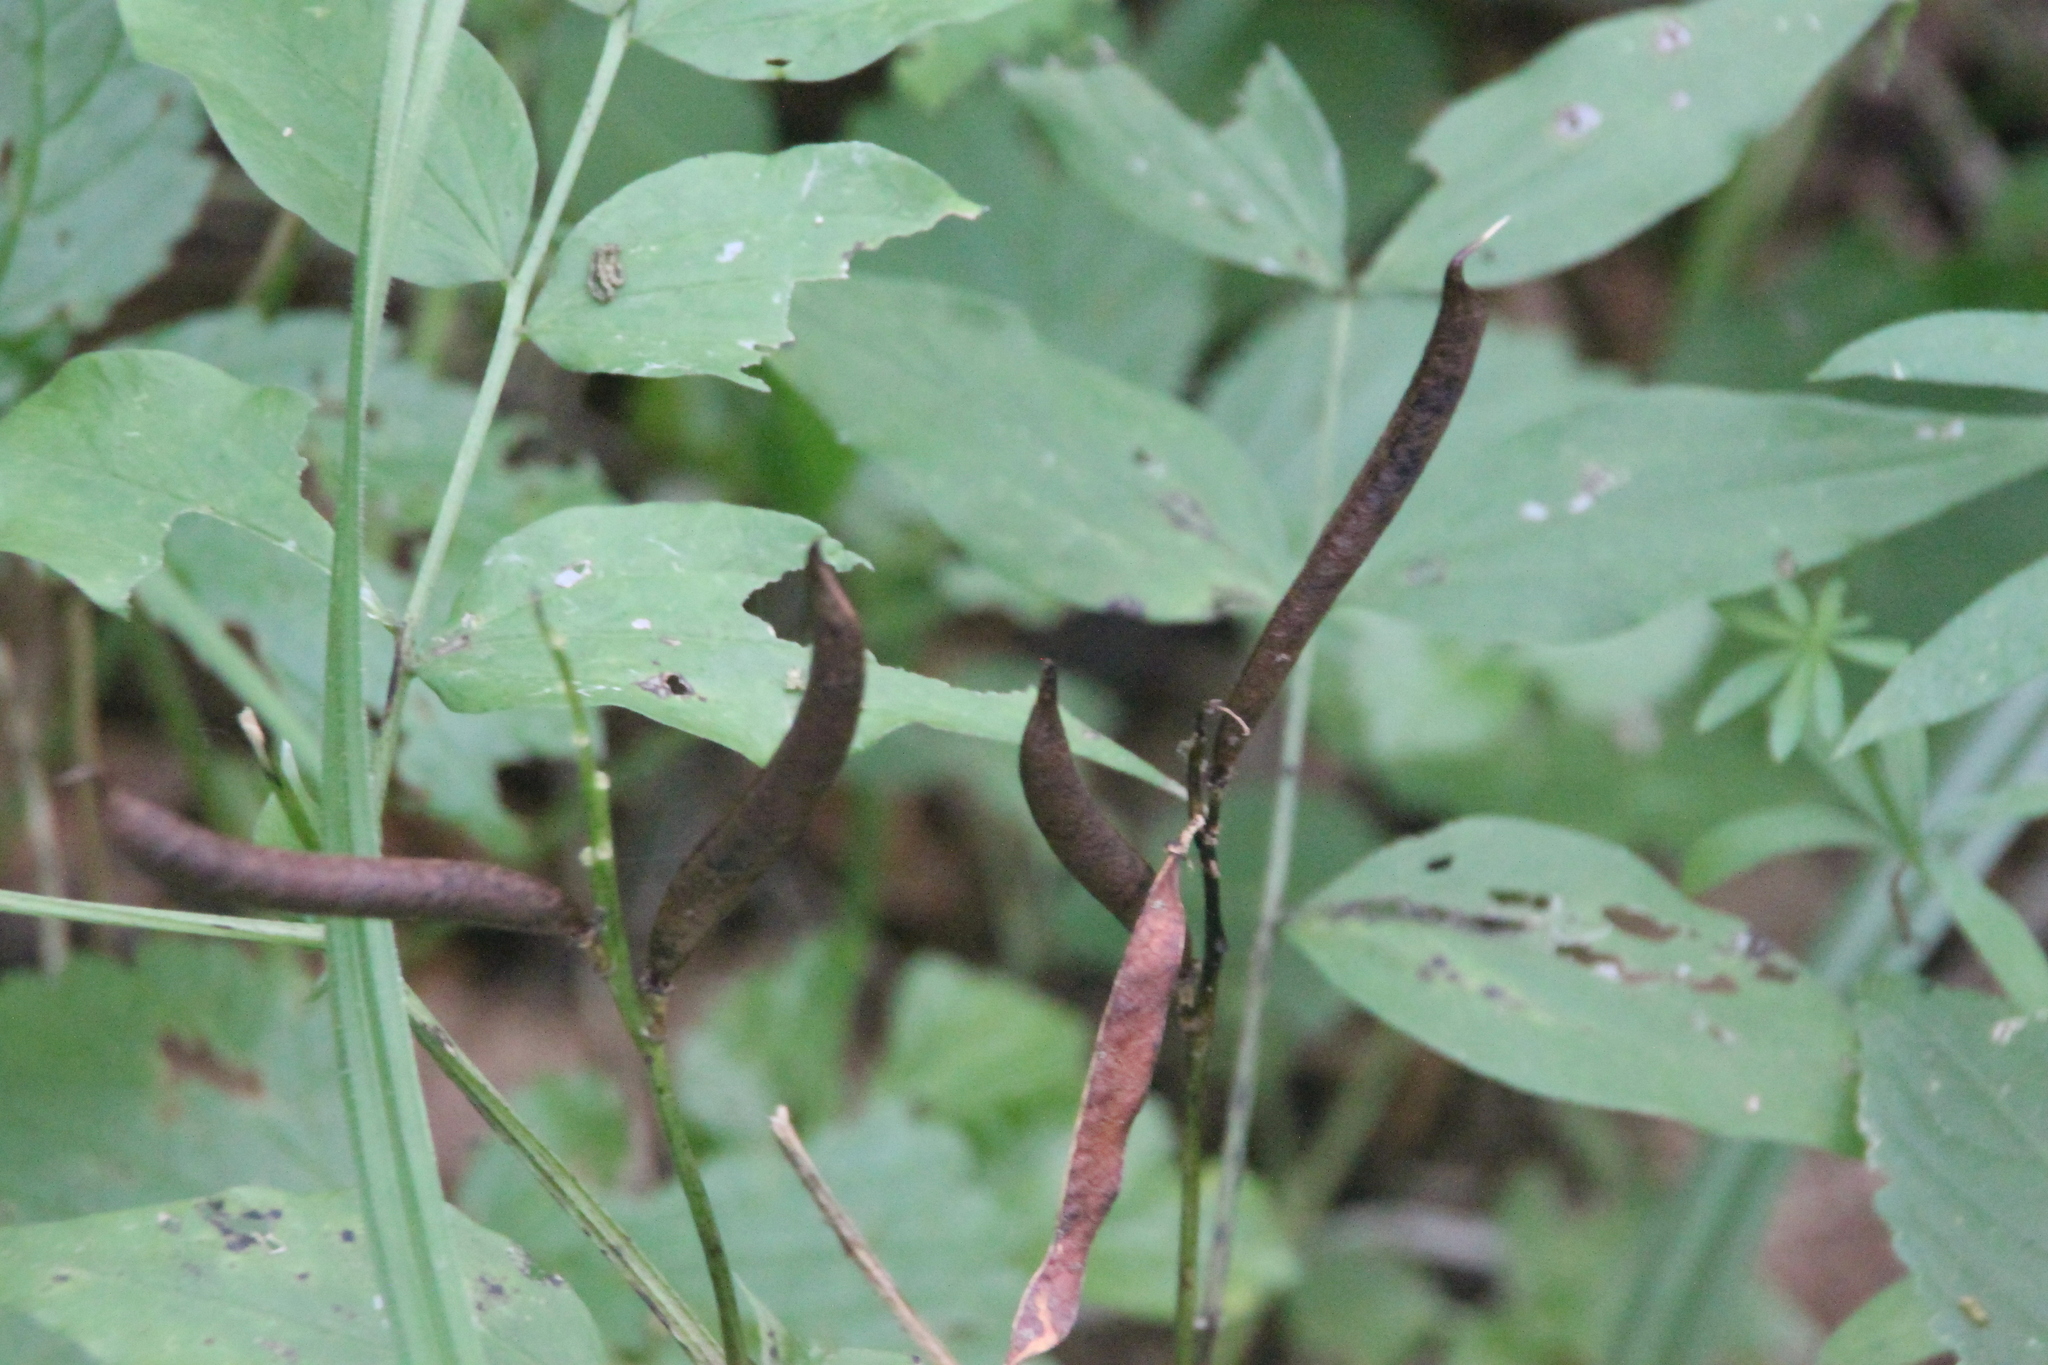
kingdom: Plantae
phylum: Tracheophyta
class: Magnoliopsida
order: Fabales
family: Fabaceae
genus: Lathyrus
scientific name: Lathyrus vernus
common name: Spring pea
